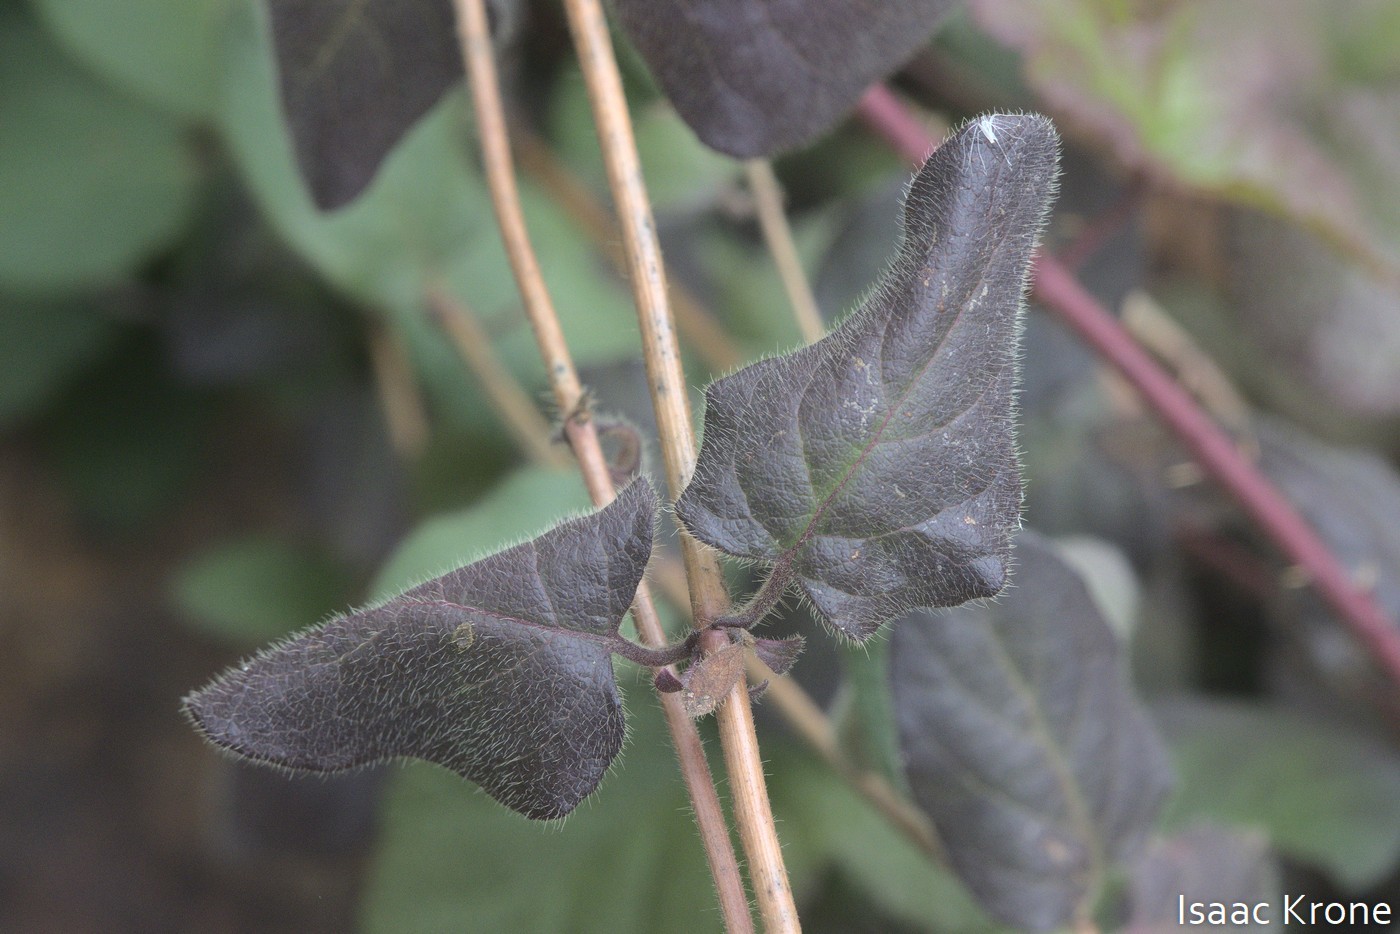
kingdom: Plantae
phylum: Tracheophyta
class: Magnoliopsida
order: Dipsacales
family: Caprifoliaceae
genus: Lonicera
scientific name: Lonicera hispidula
